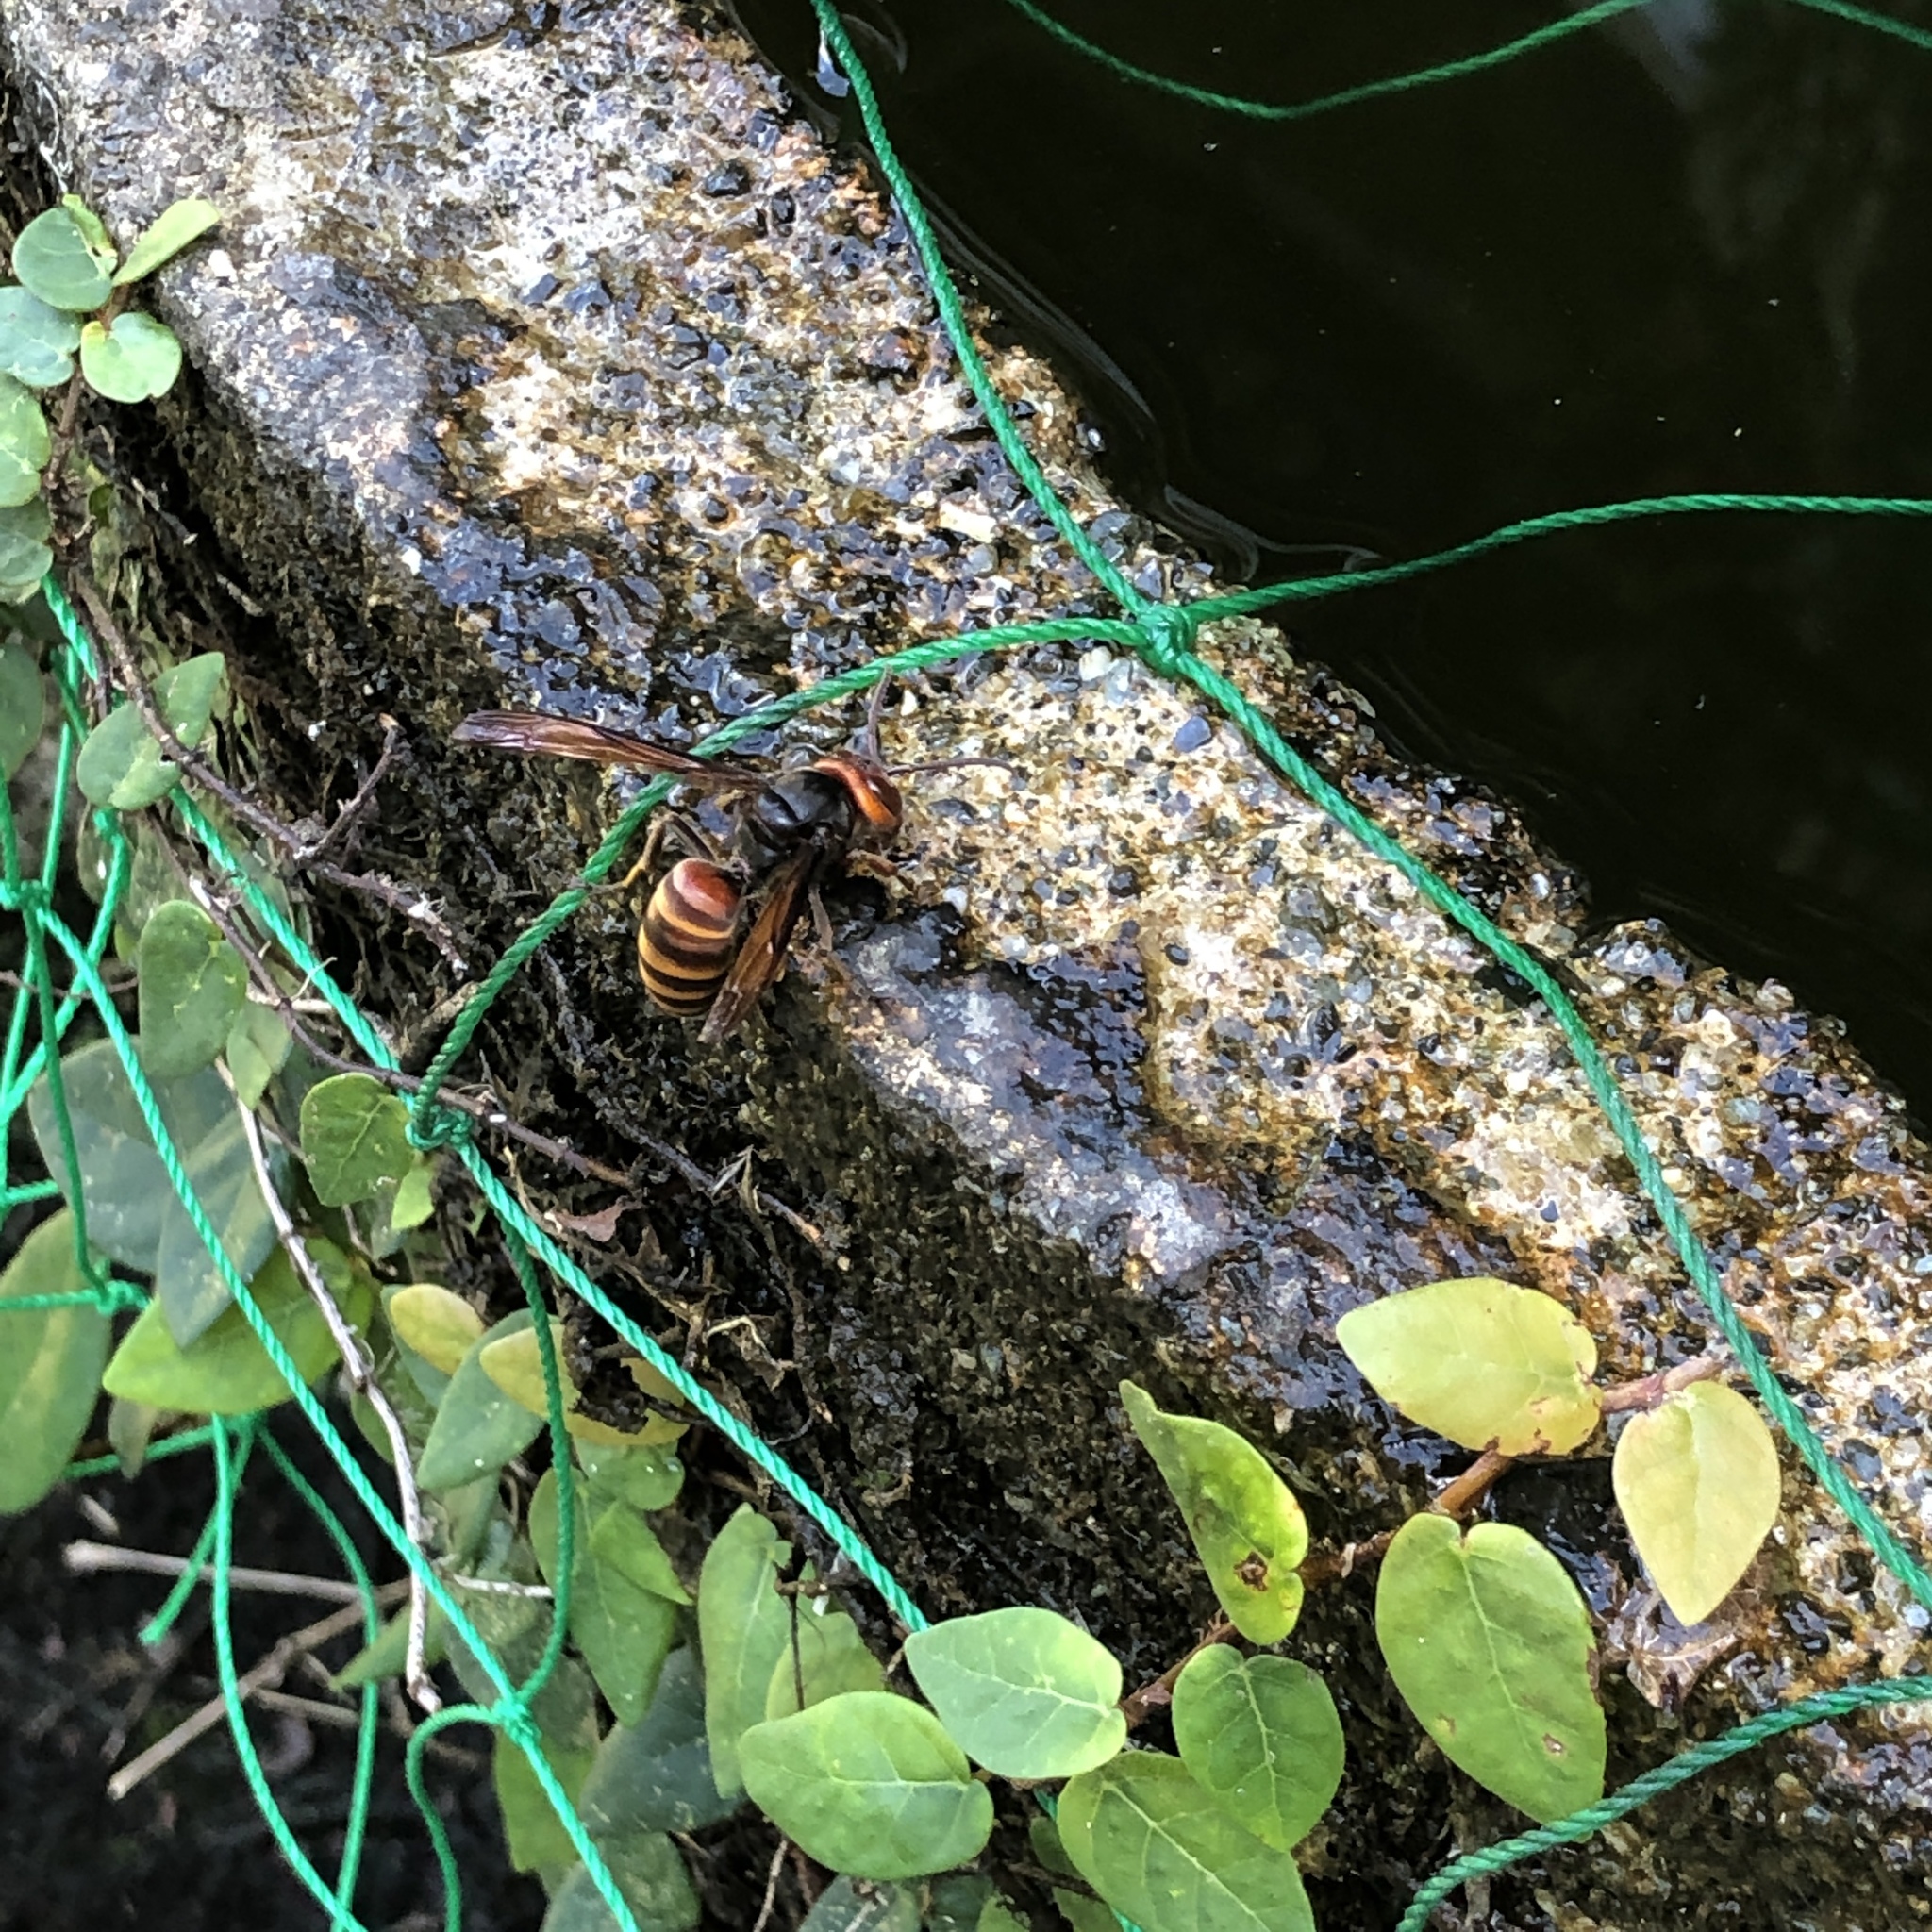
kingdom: Animalia
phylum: Arthropoda
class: Insecta
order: Hymenoptera
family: Vespidae
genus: Vespa
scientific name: Vespa analis
